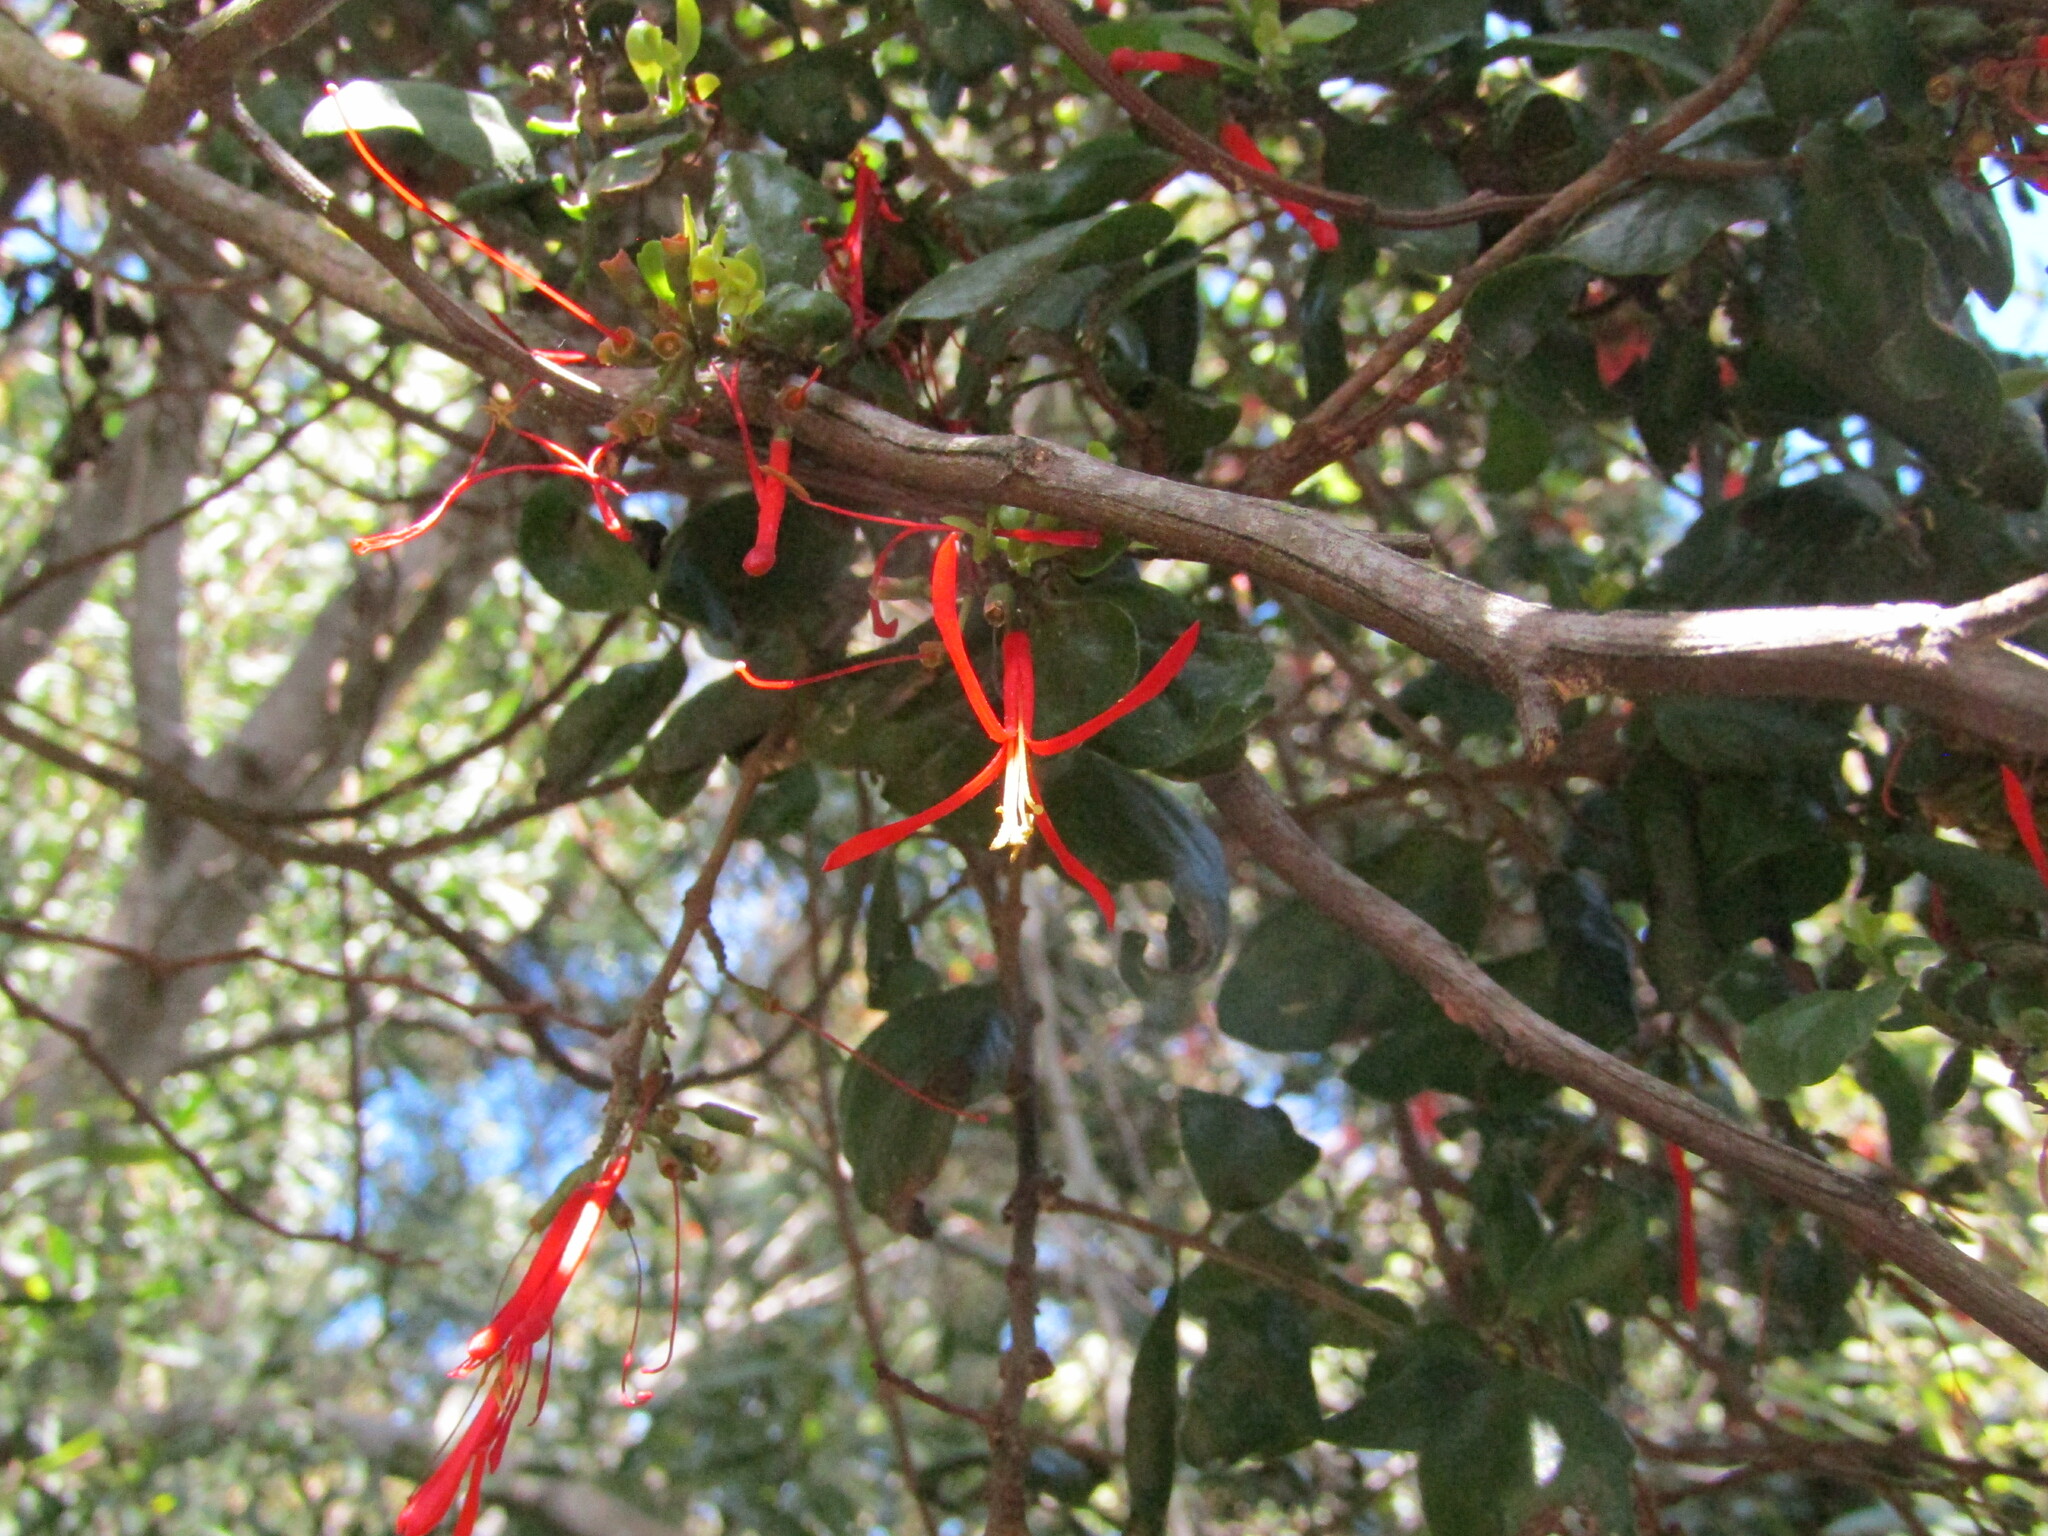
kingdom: Plantae
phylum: Tracheophyta
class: Magnoliopsida
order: Santalales
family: Loranthaceae
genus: Tristerix
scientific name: Tristerix corymbosus
